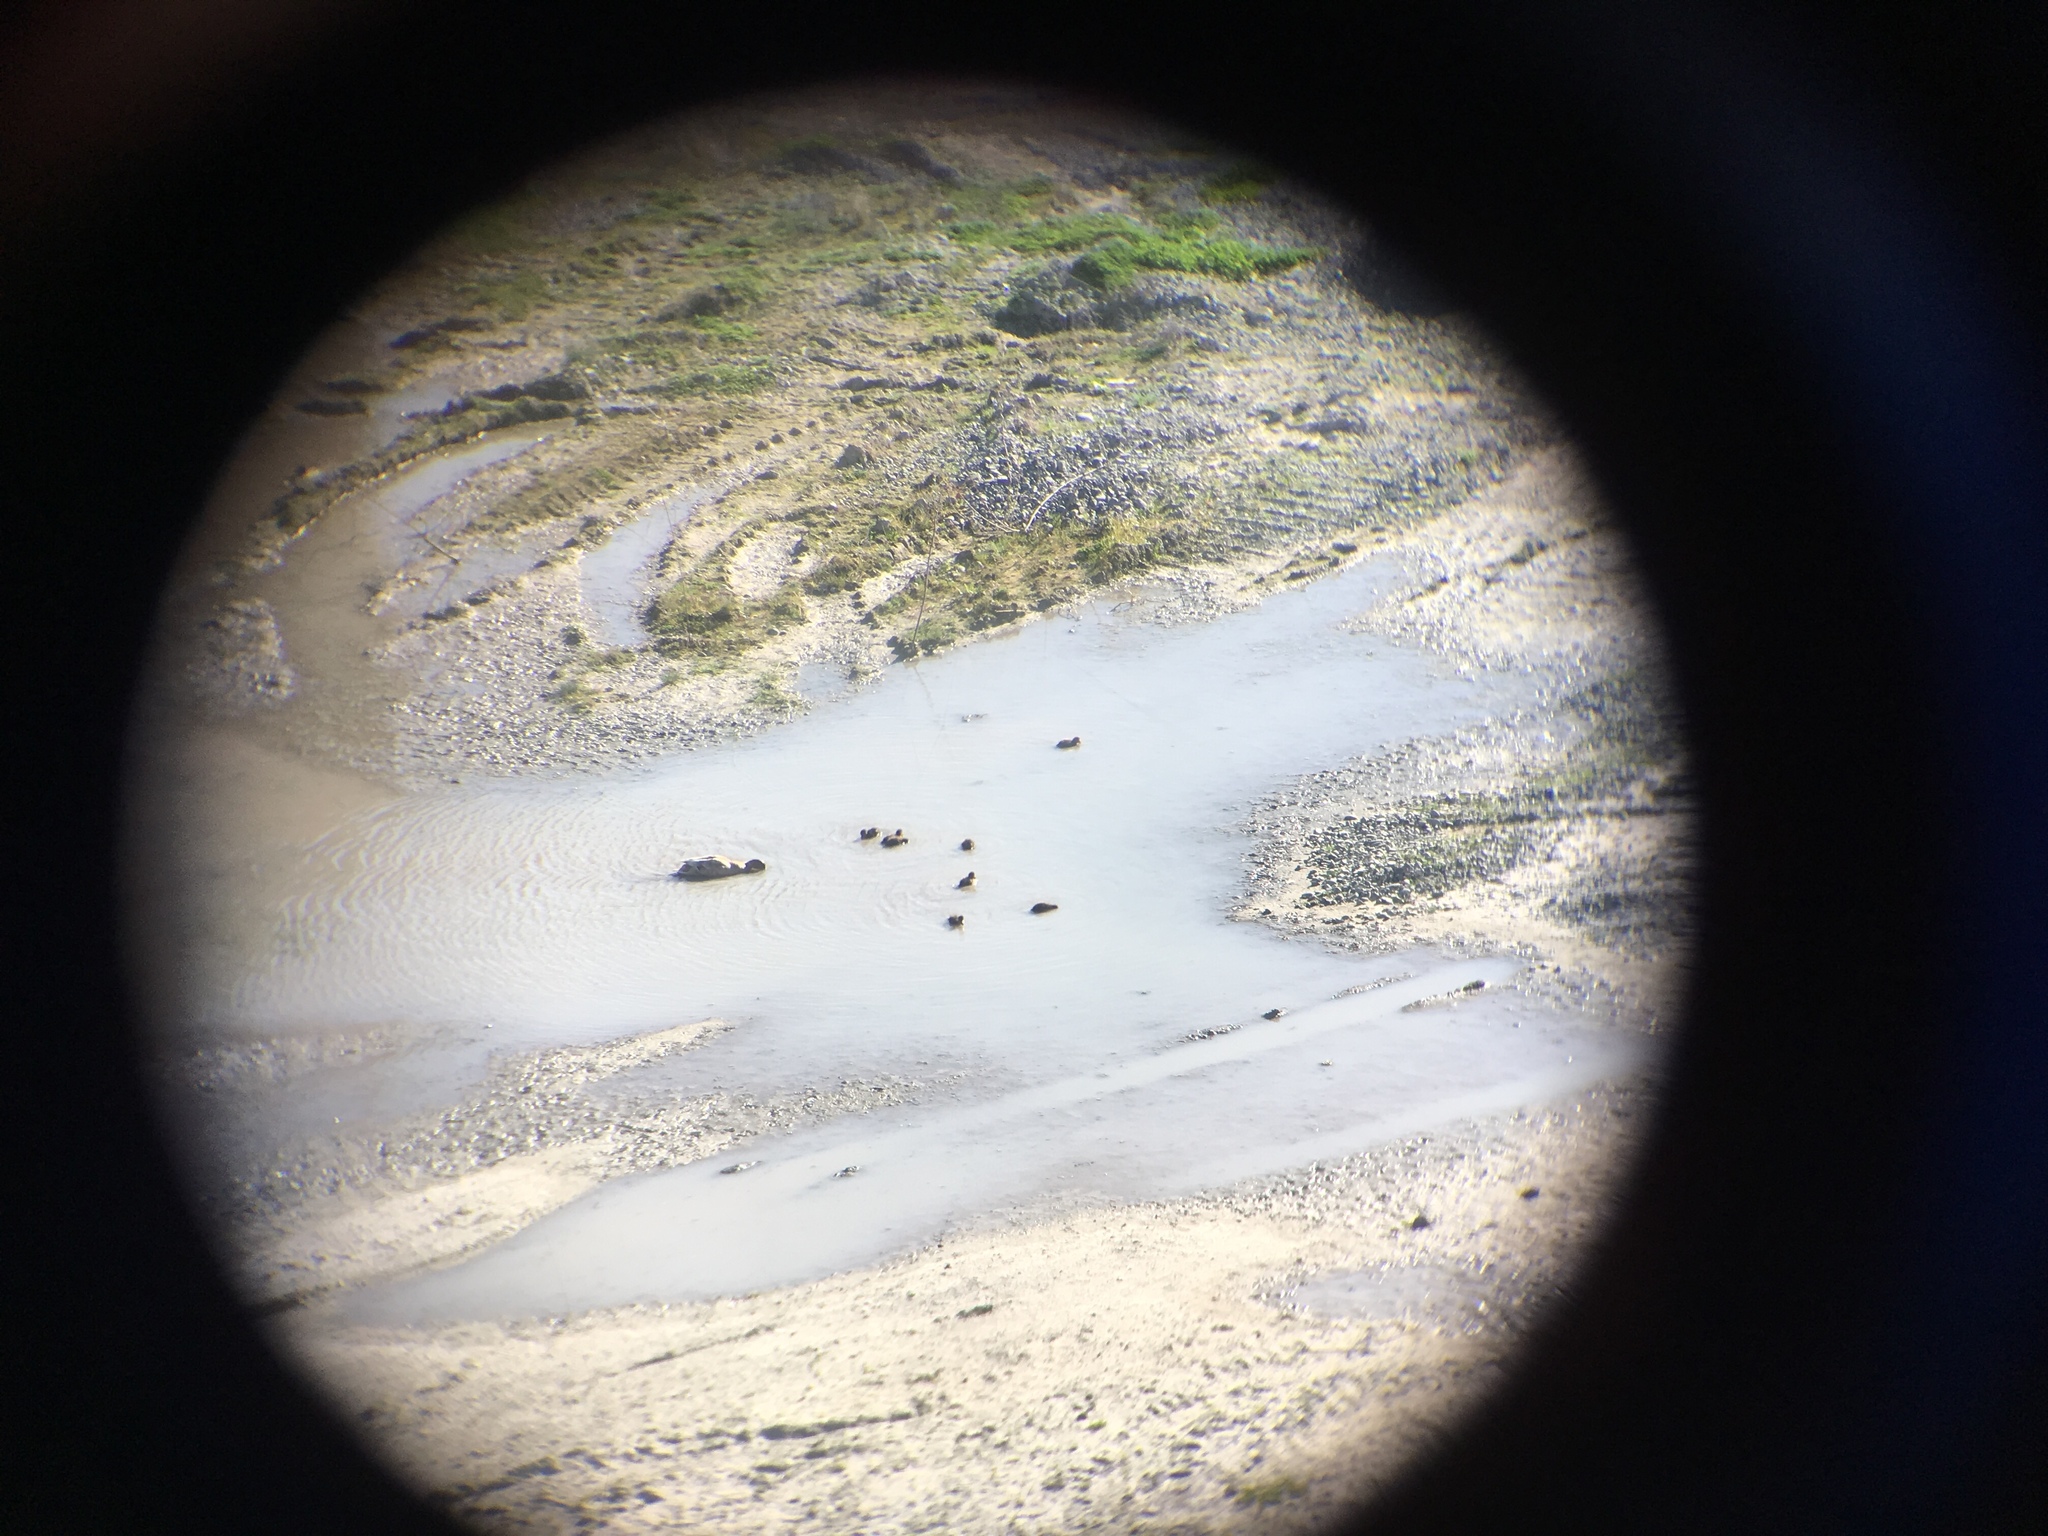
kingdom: Animalia
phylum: Chordata
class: Aves
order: Anseriformes
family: Anatidae
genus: Anas
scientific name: Anas platyrhynchos
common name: Mallard
